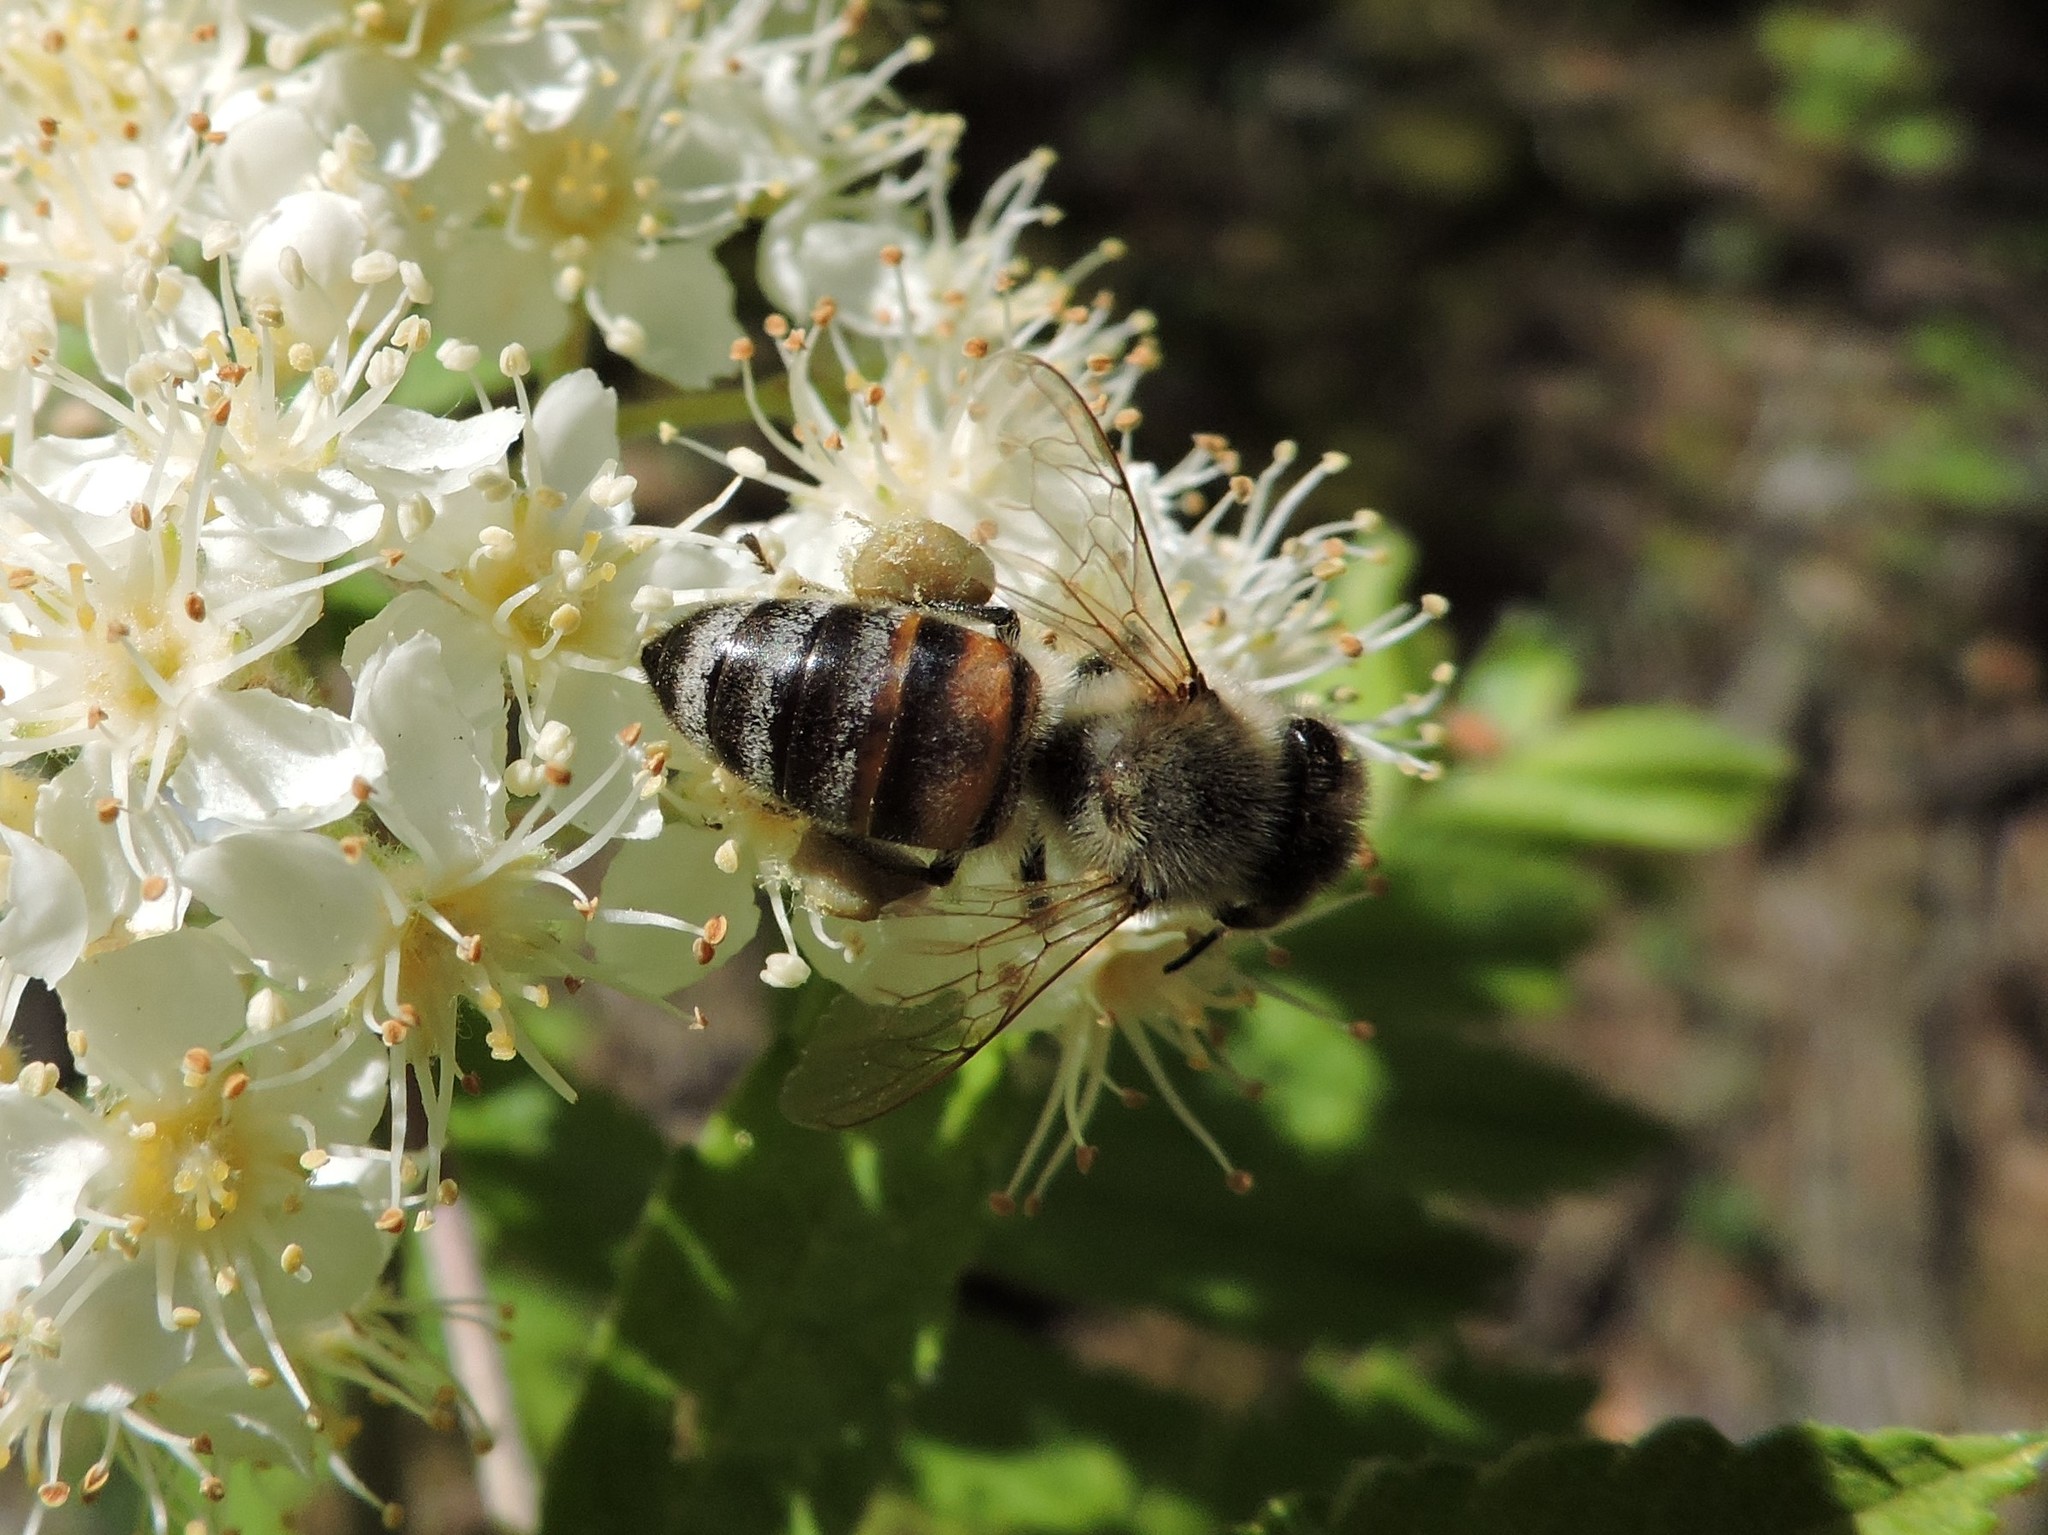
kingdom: Animalia
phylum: Arthropoda
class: Insecta
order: Hymenoptera
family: Apidae
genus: Apis
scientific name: Apis mellifera
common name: Honey bee
